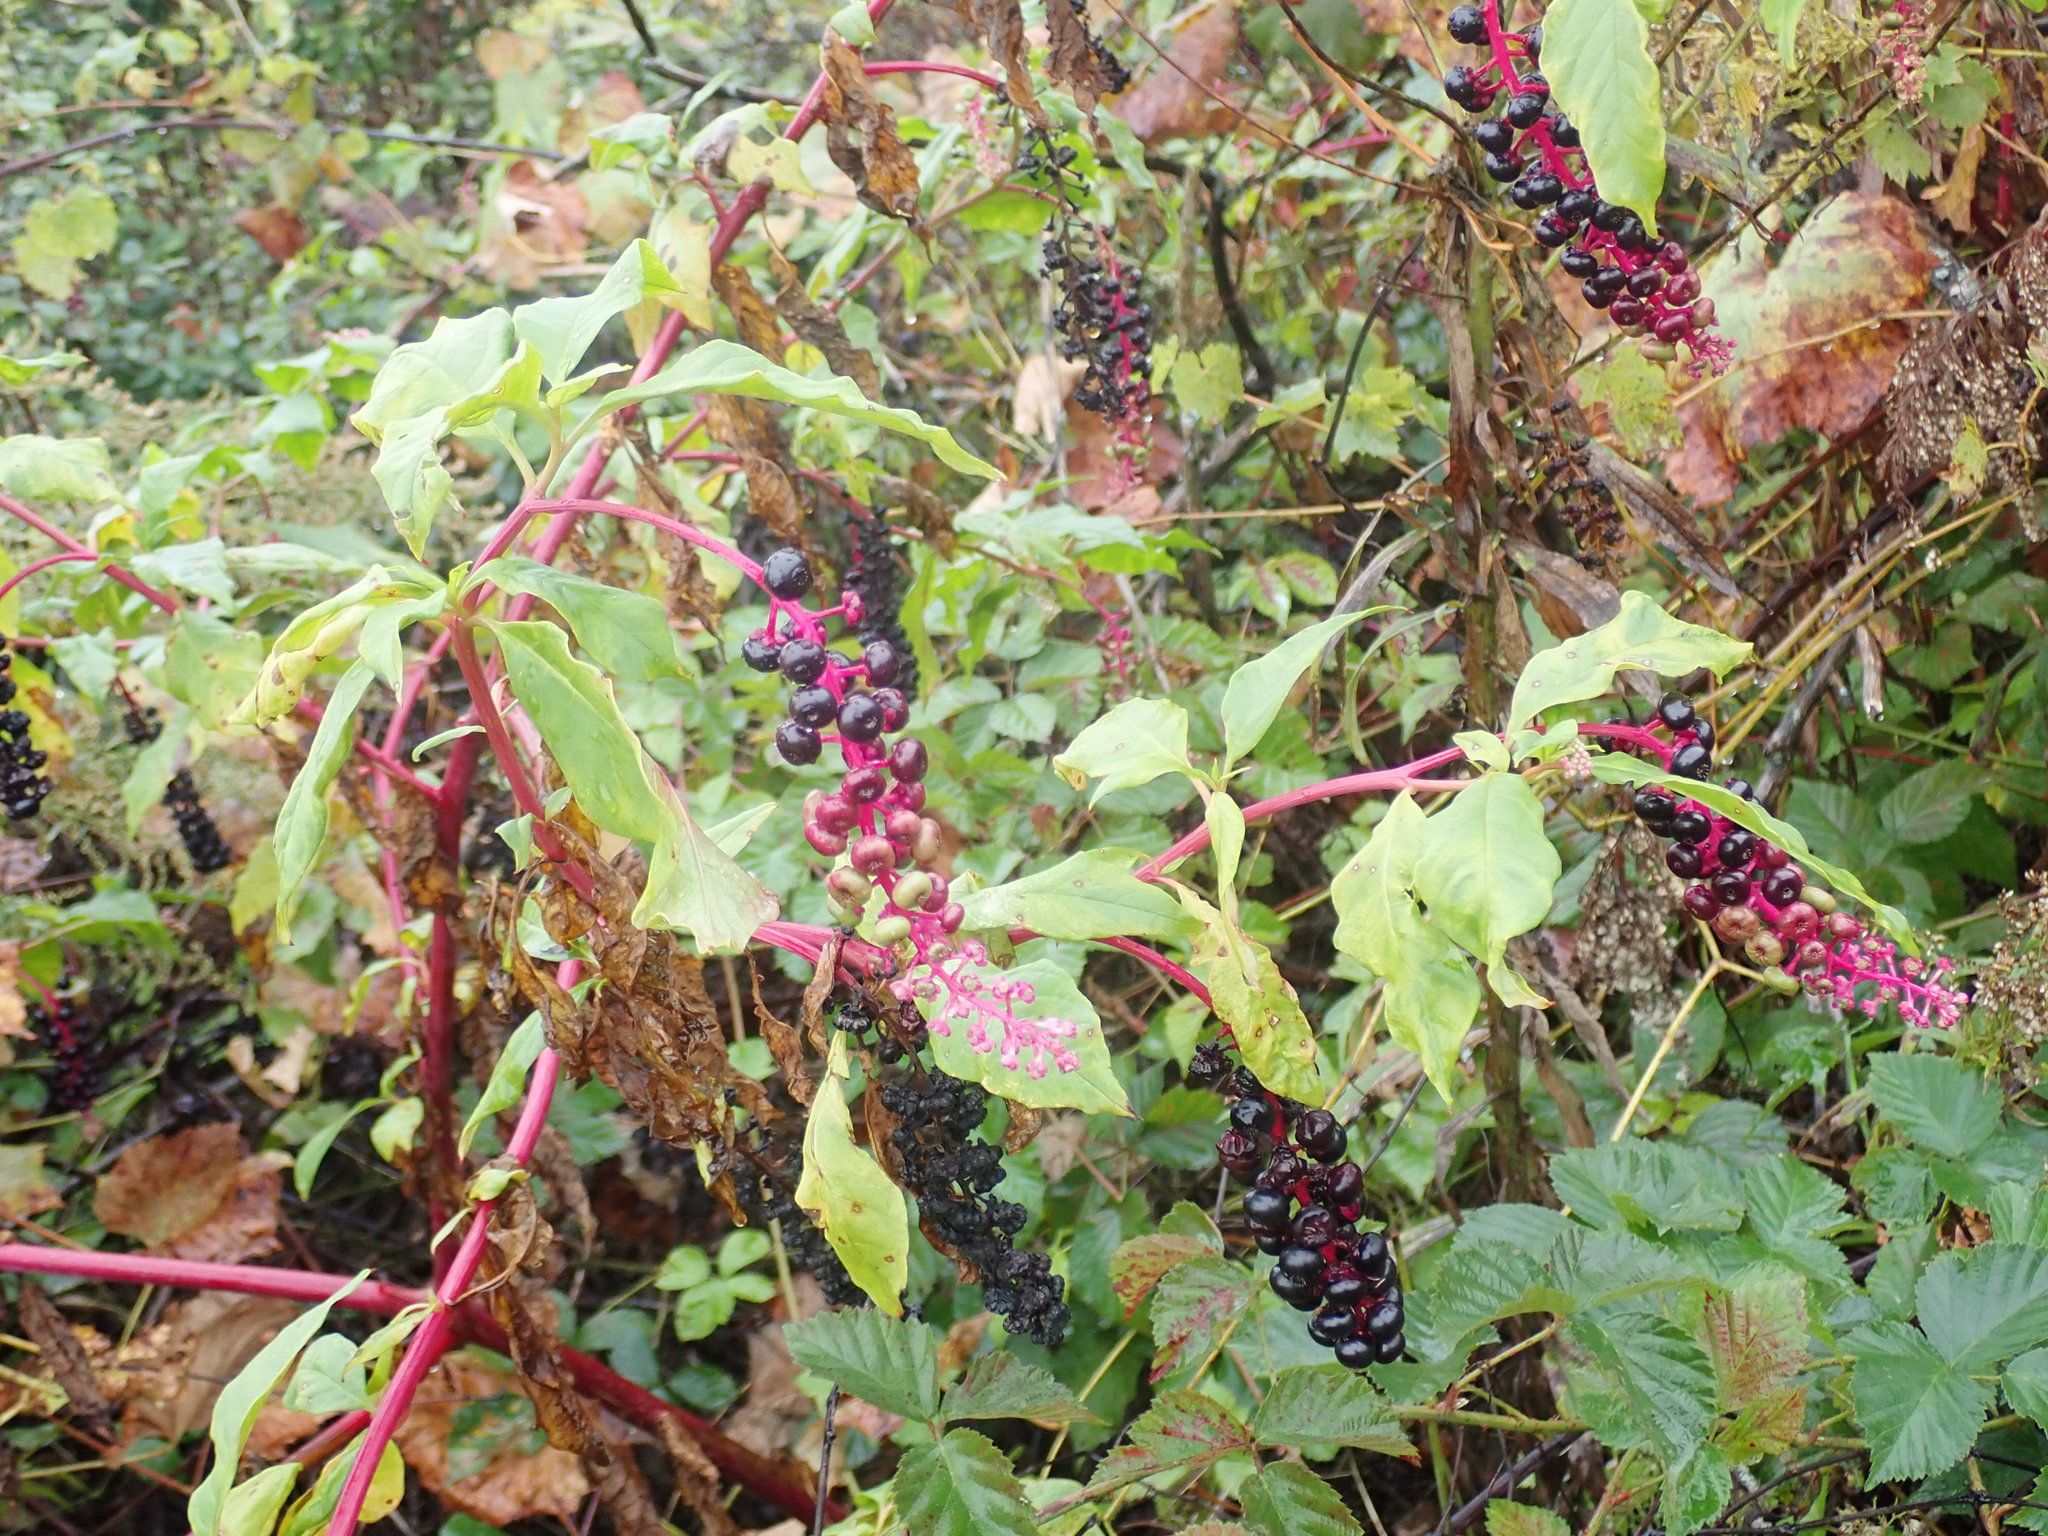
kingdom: Plantae
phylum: Tracheophyta
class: Magnoliopsida
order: Caryophyllales
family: Phytolaccaceae
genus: Phytolacca
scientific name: Phytolacca americana
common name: American pokeweed
